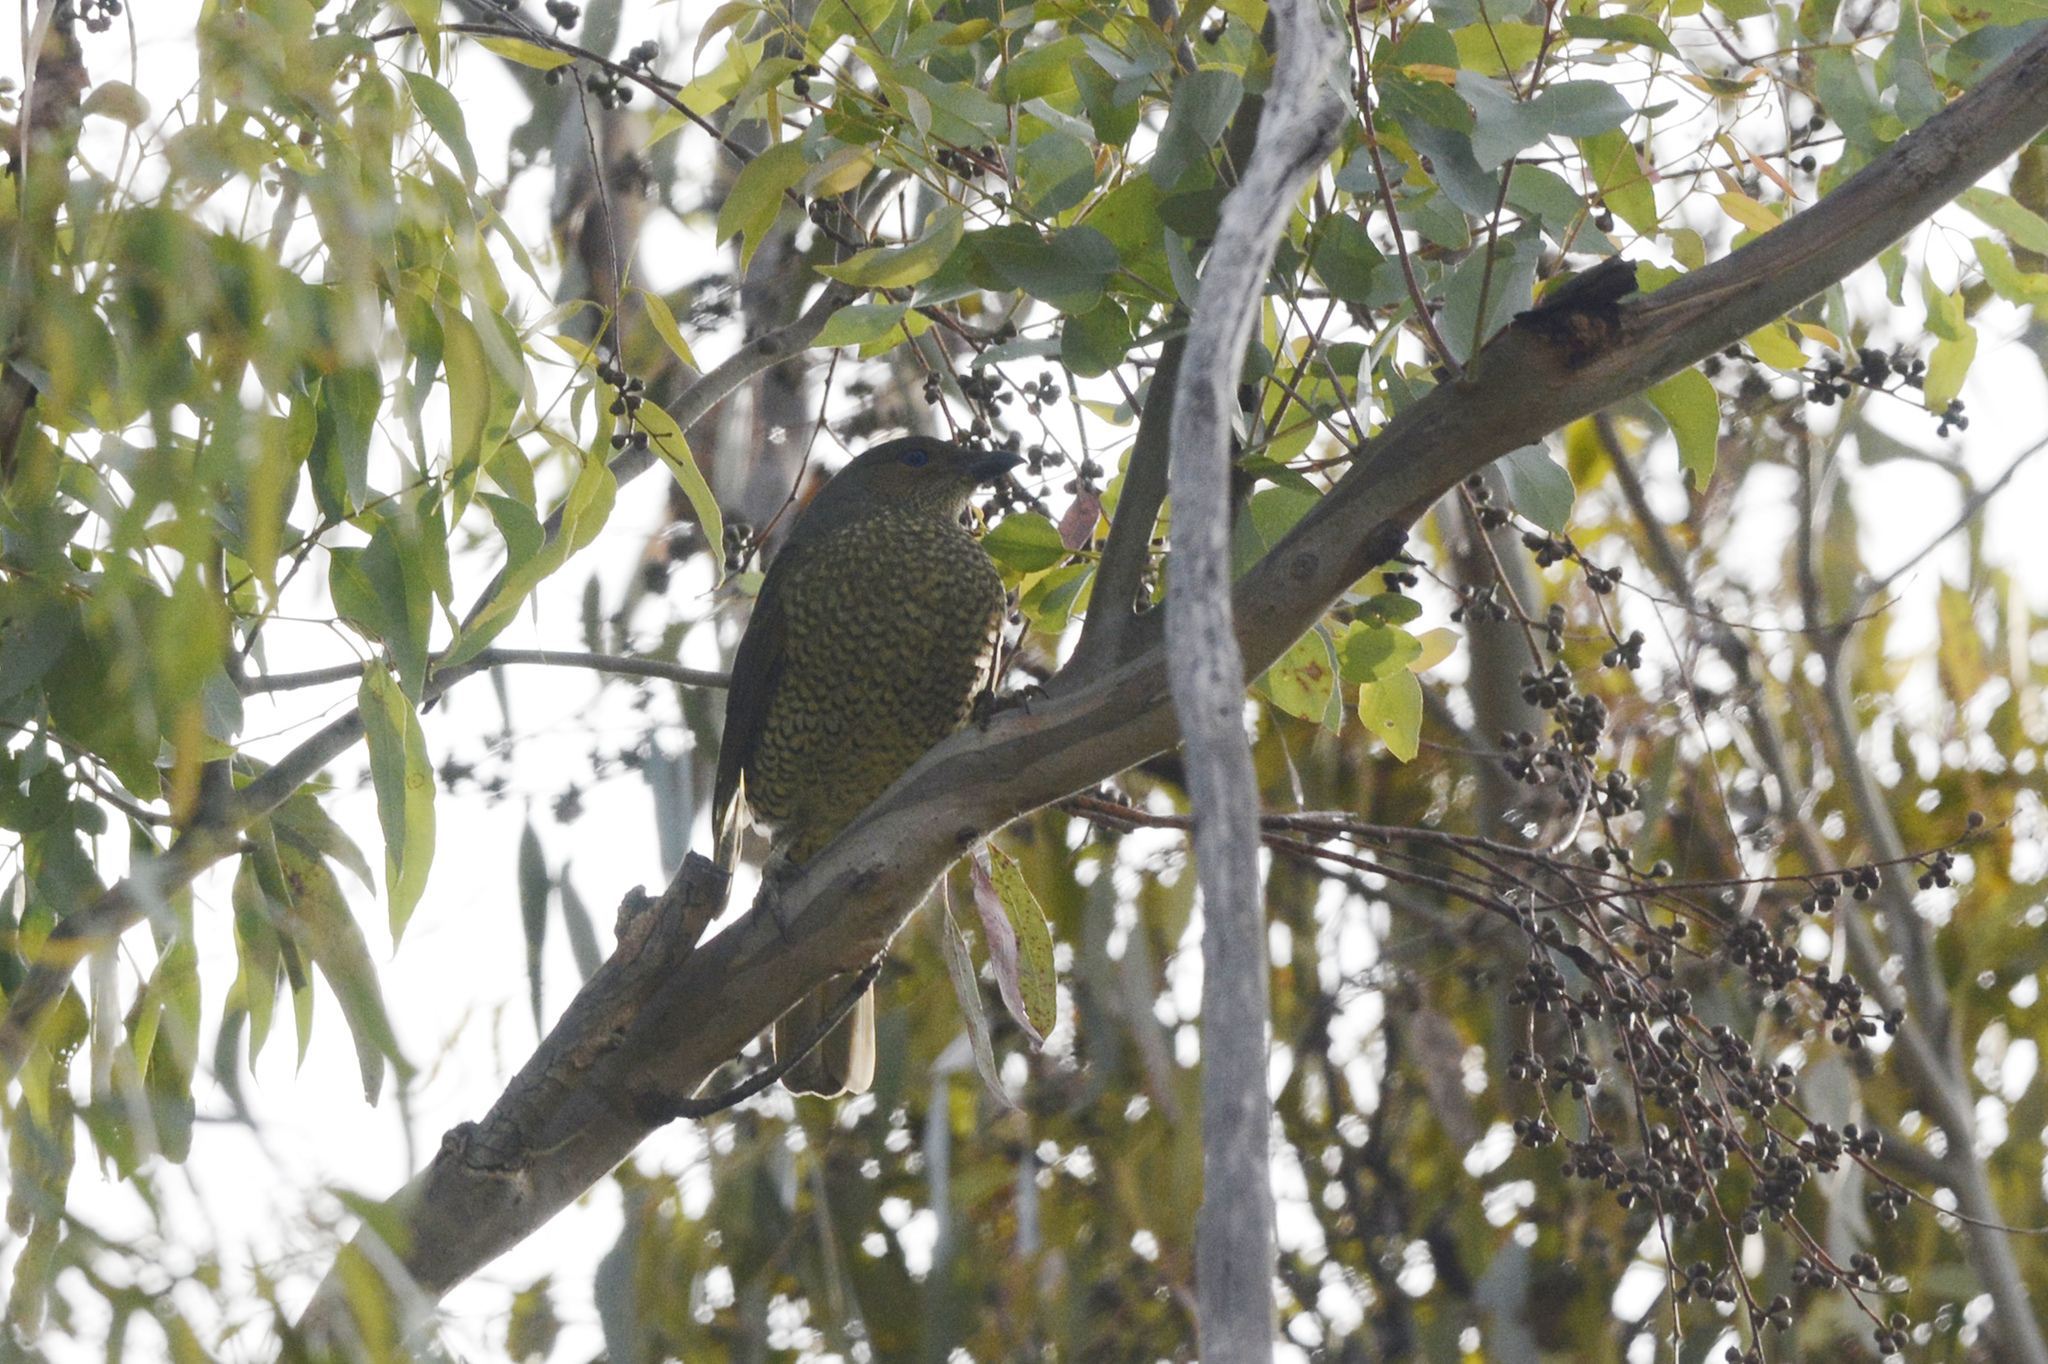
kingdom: Animalia
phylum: Chordata
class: Aves
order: Passeriformes
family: Ptilonorhynchidae
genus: Ptilonorhynchus
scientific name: Ptilonorhynchus violaceus
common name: Satin bowerbird
